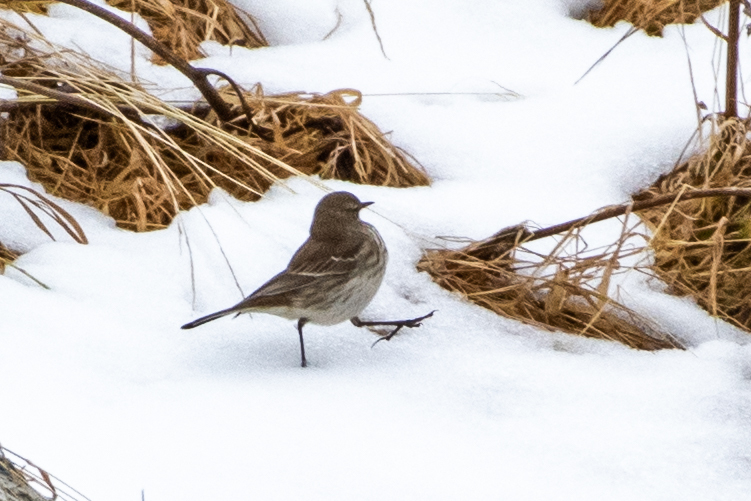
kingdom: Animalia
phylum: Chordata
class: Aves
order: Passeriformes
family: Motacillidae
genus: Anthus
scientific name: Anthus spinoletta
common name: Water pipit
